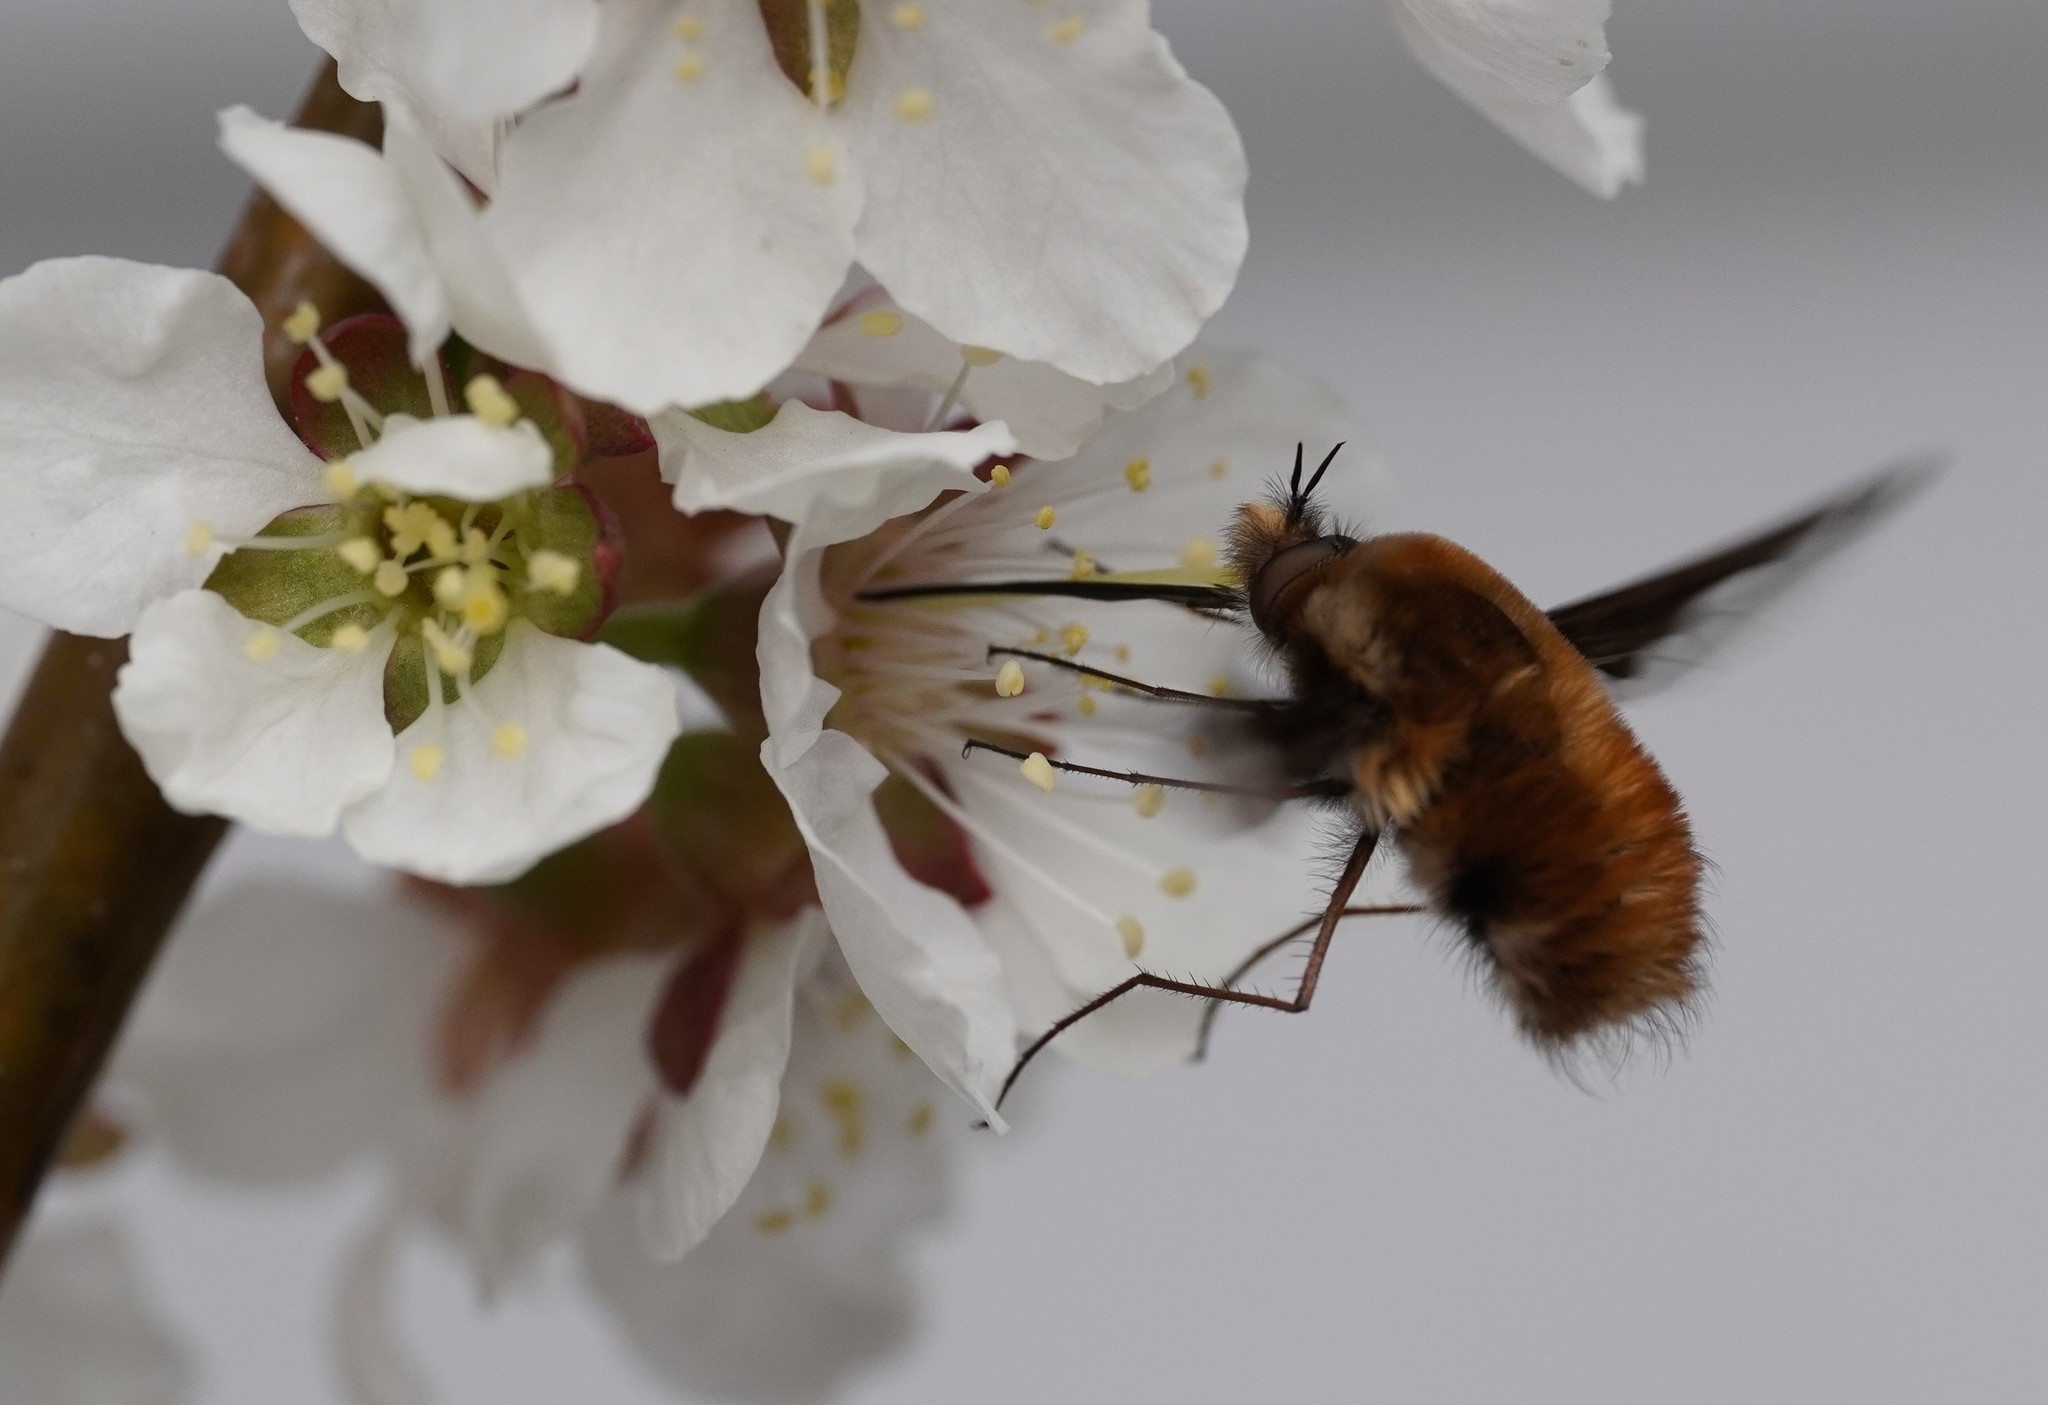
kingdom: Animalia
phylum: Arthropoda
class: Insecta
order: Diptera
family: Bombyliidae
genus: Bombylius
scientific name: Bombylius major
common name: Bee fly
